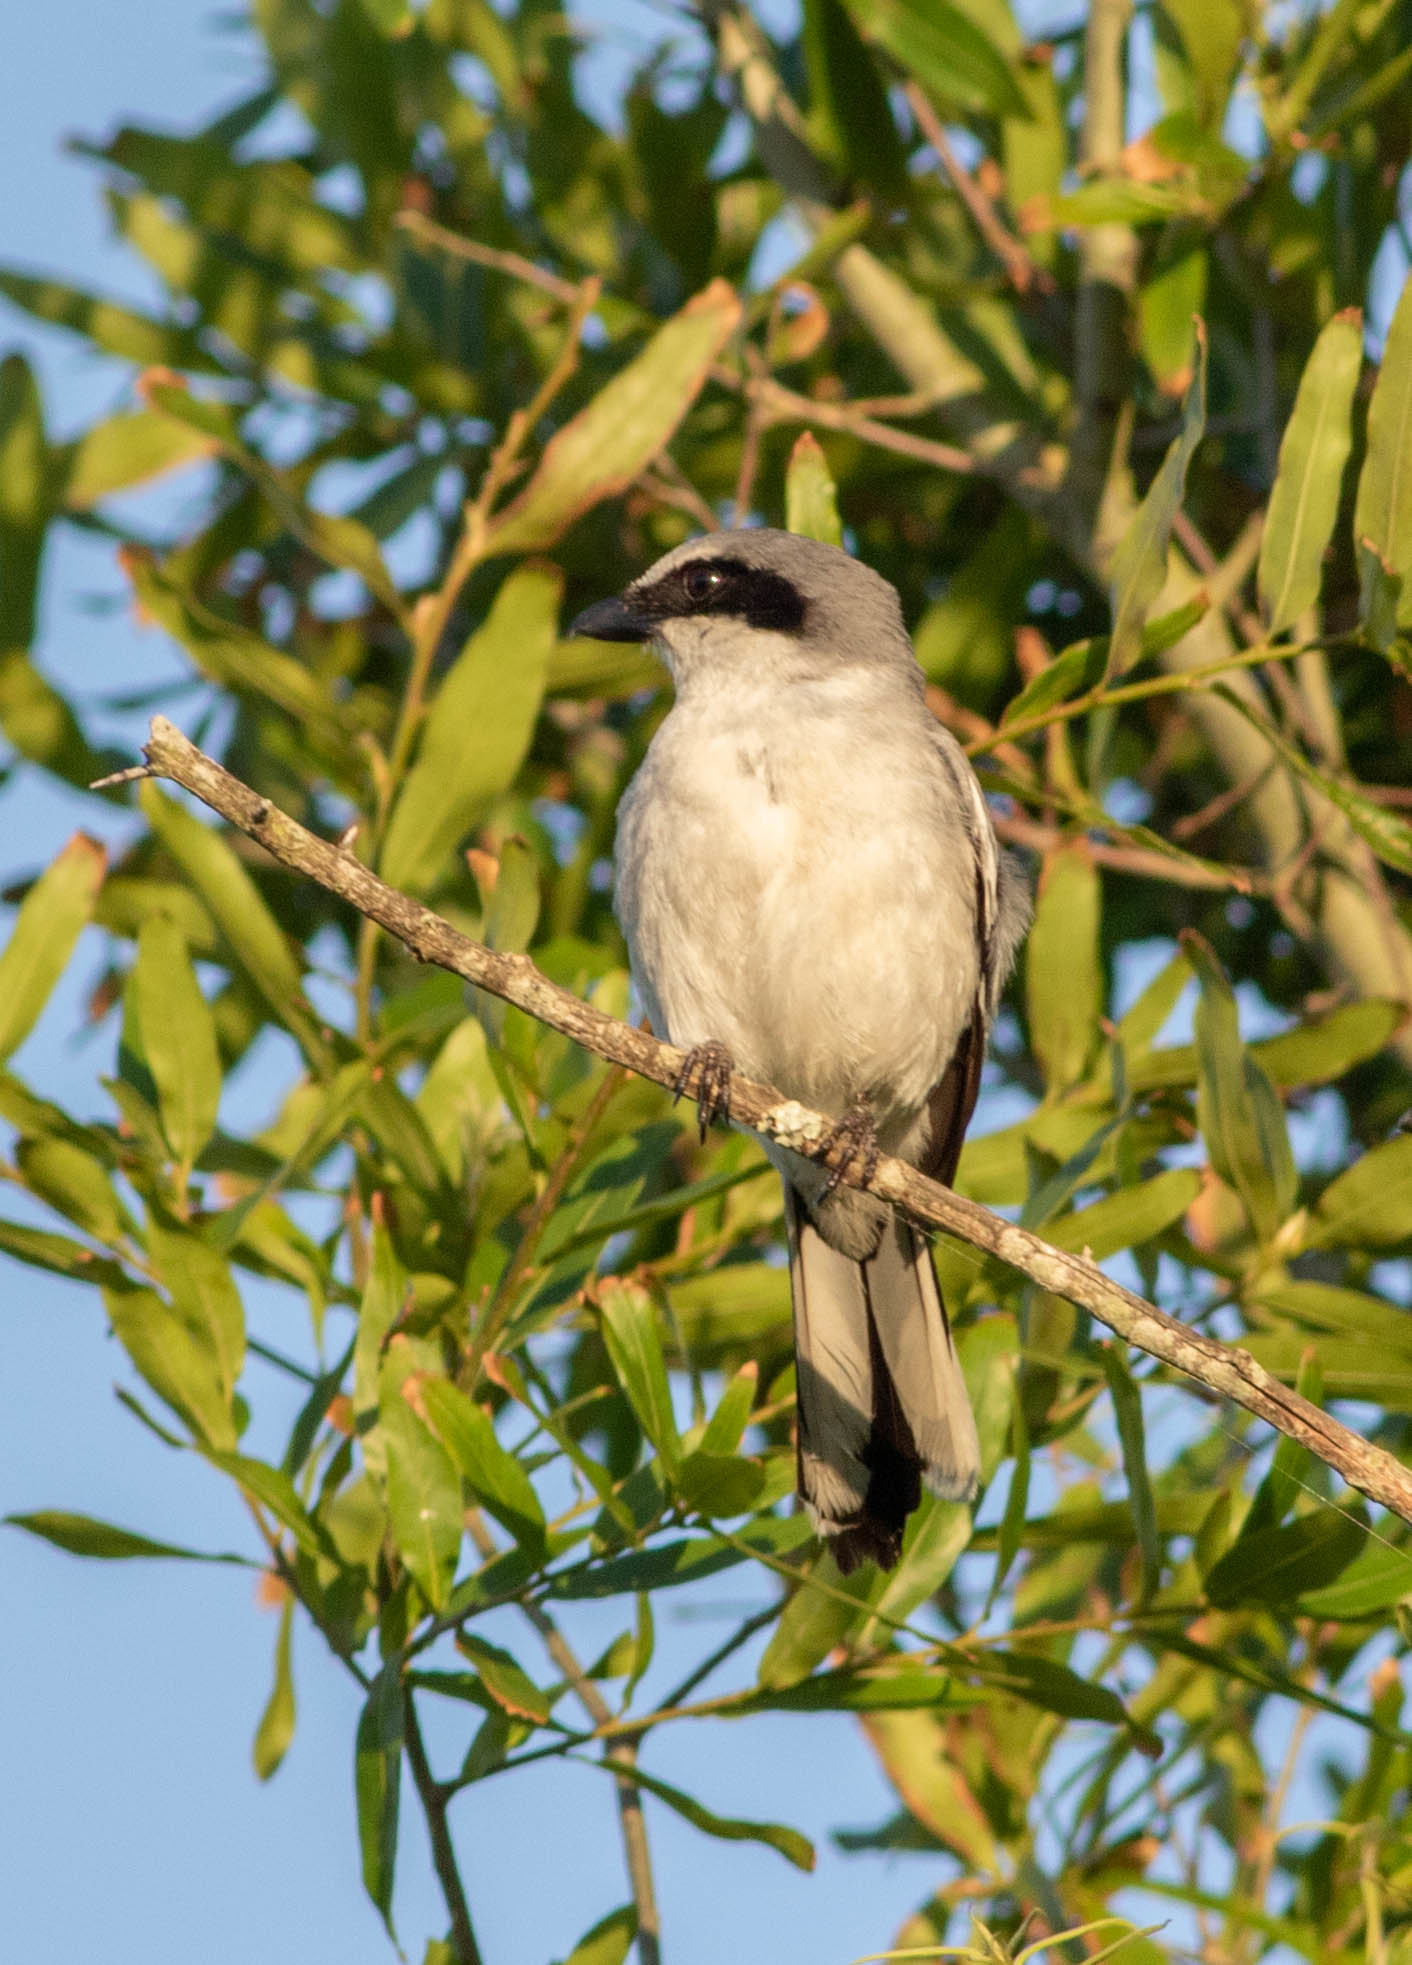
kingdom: Animalia
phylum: Chordata
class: Aves
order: Passeriformes
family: Laniidae
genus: Lanius
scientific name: Lanius ludovicianus
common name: Loggerhead shrike
